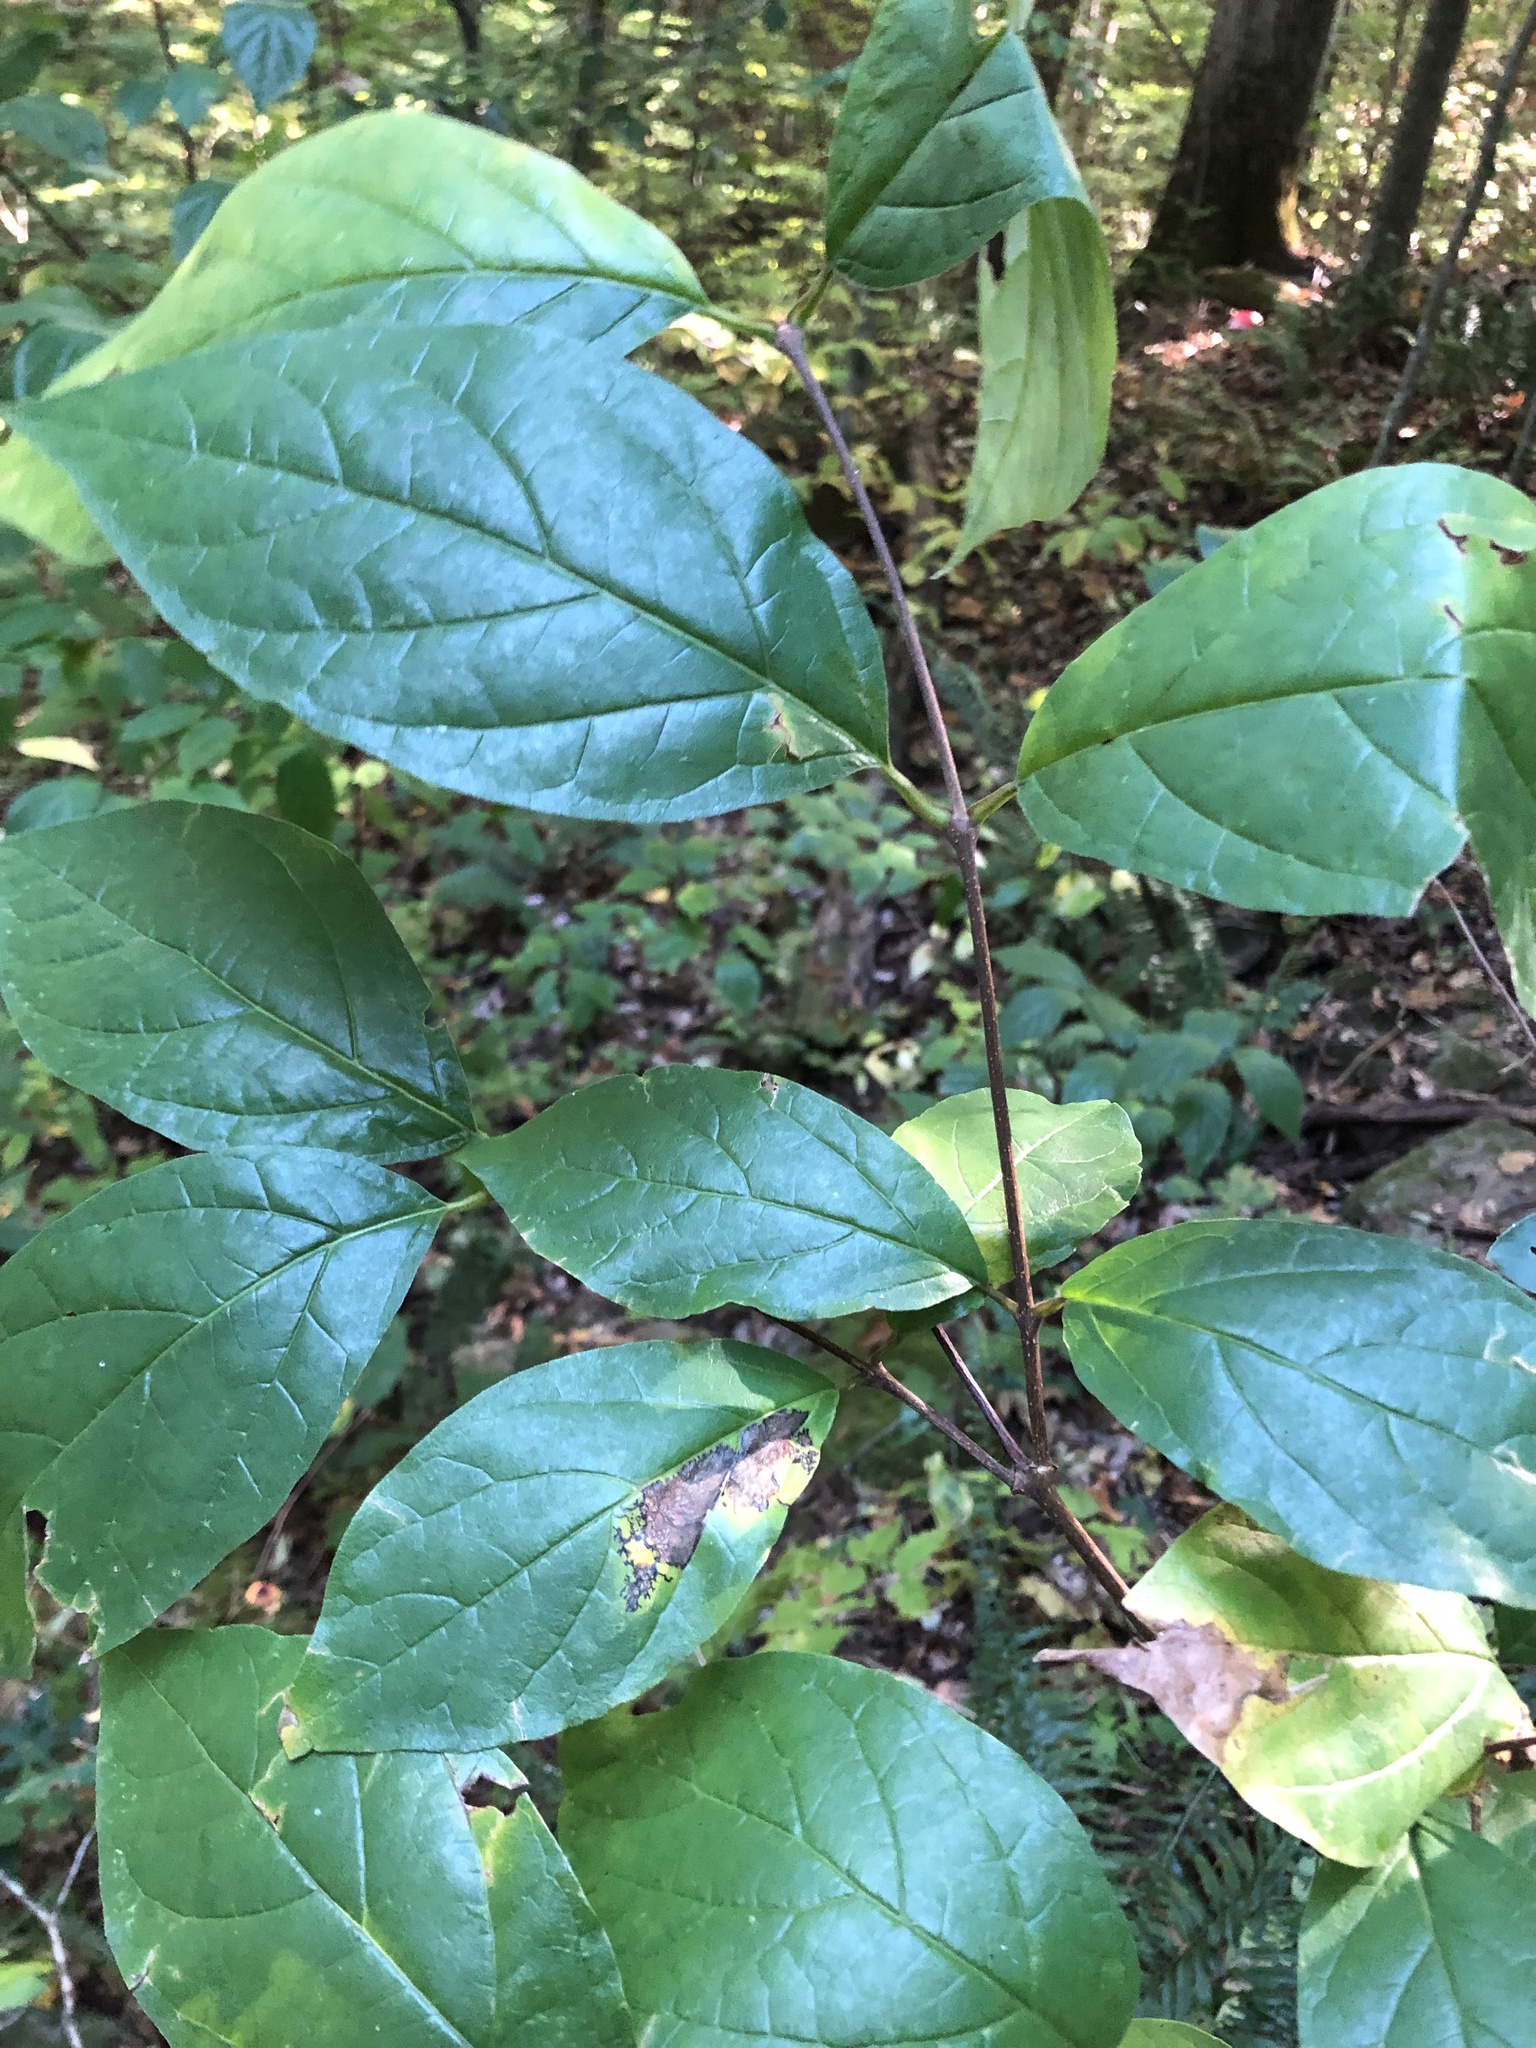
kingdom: Plantae
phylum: Tracheophyta
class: Magnoliopsida
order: Laurales
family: Calycanthaceae
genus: Calycanthus
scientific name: Calycanthus floridus
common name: Carolina-allspice
